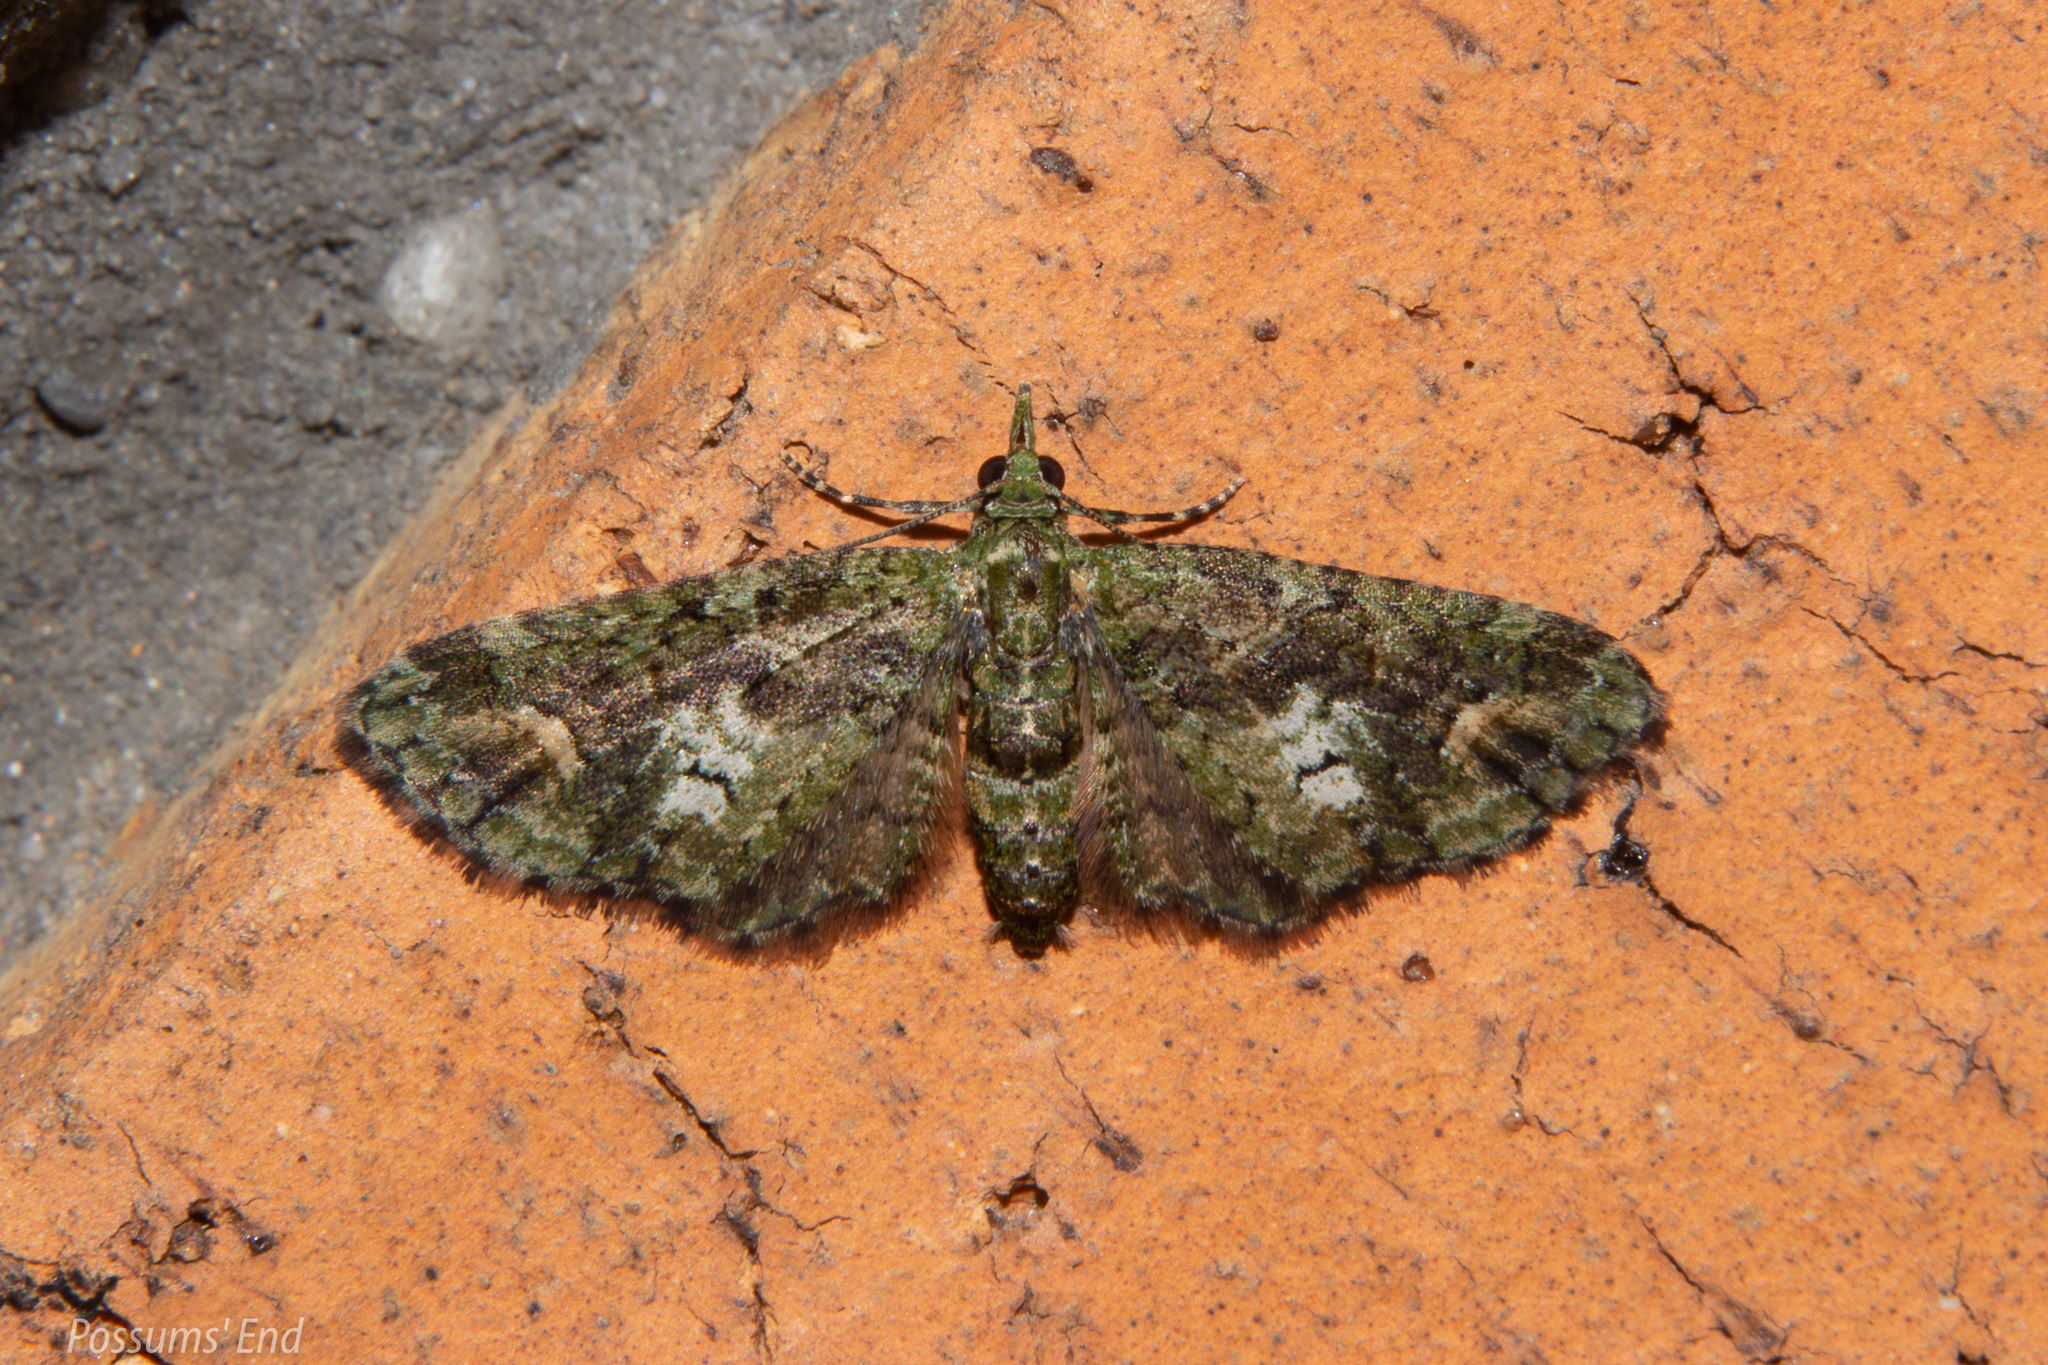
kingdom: Animalia
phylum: Arthropoda
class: Insecta
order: Lepidoptera
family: Geometridae
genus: Idaea
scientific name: Idaea mutanda
